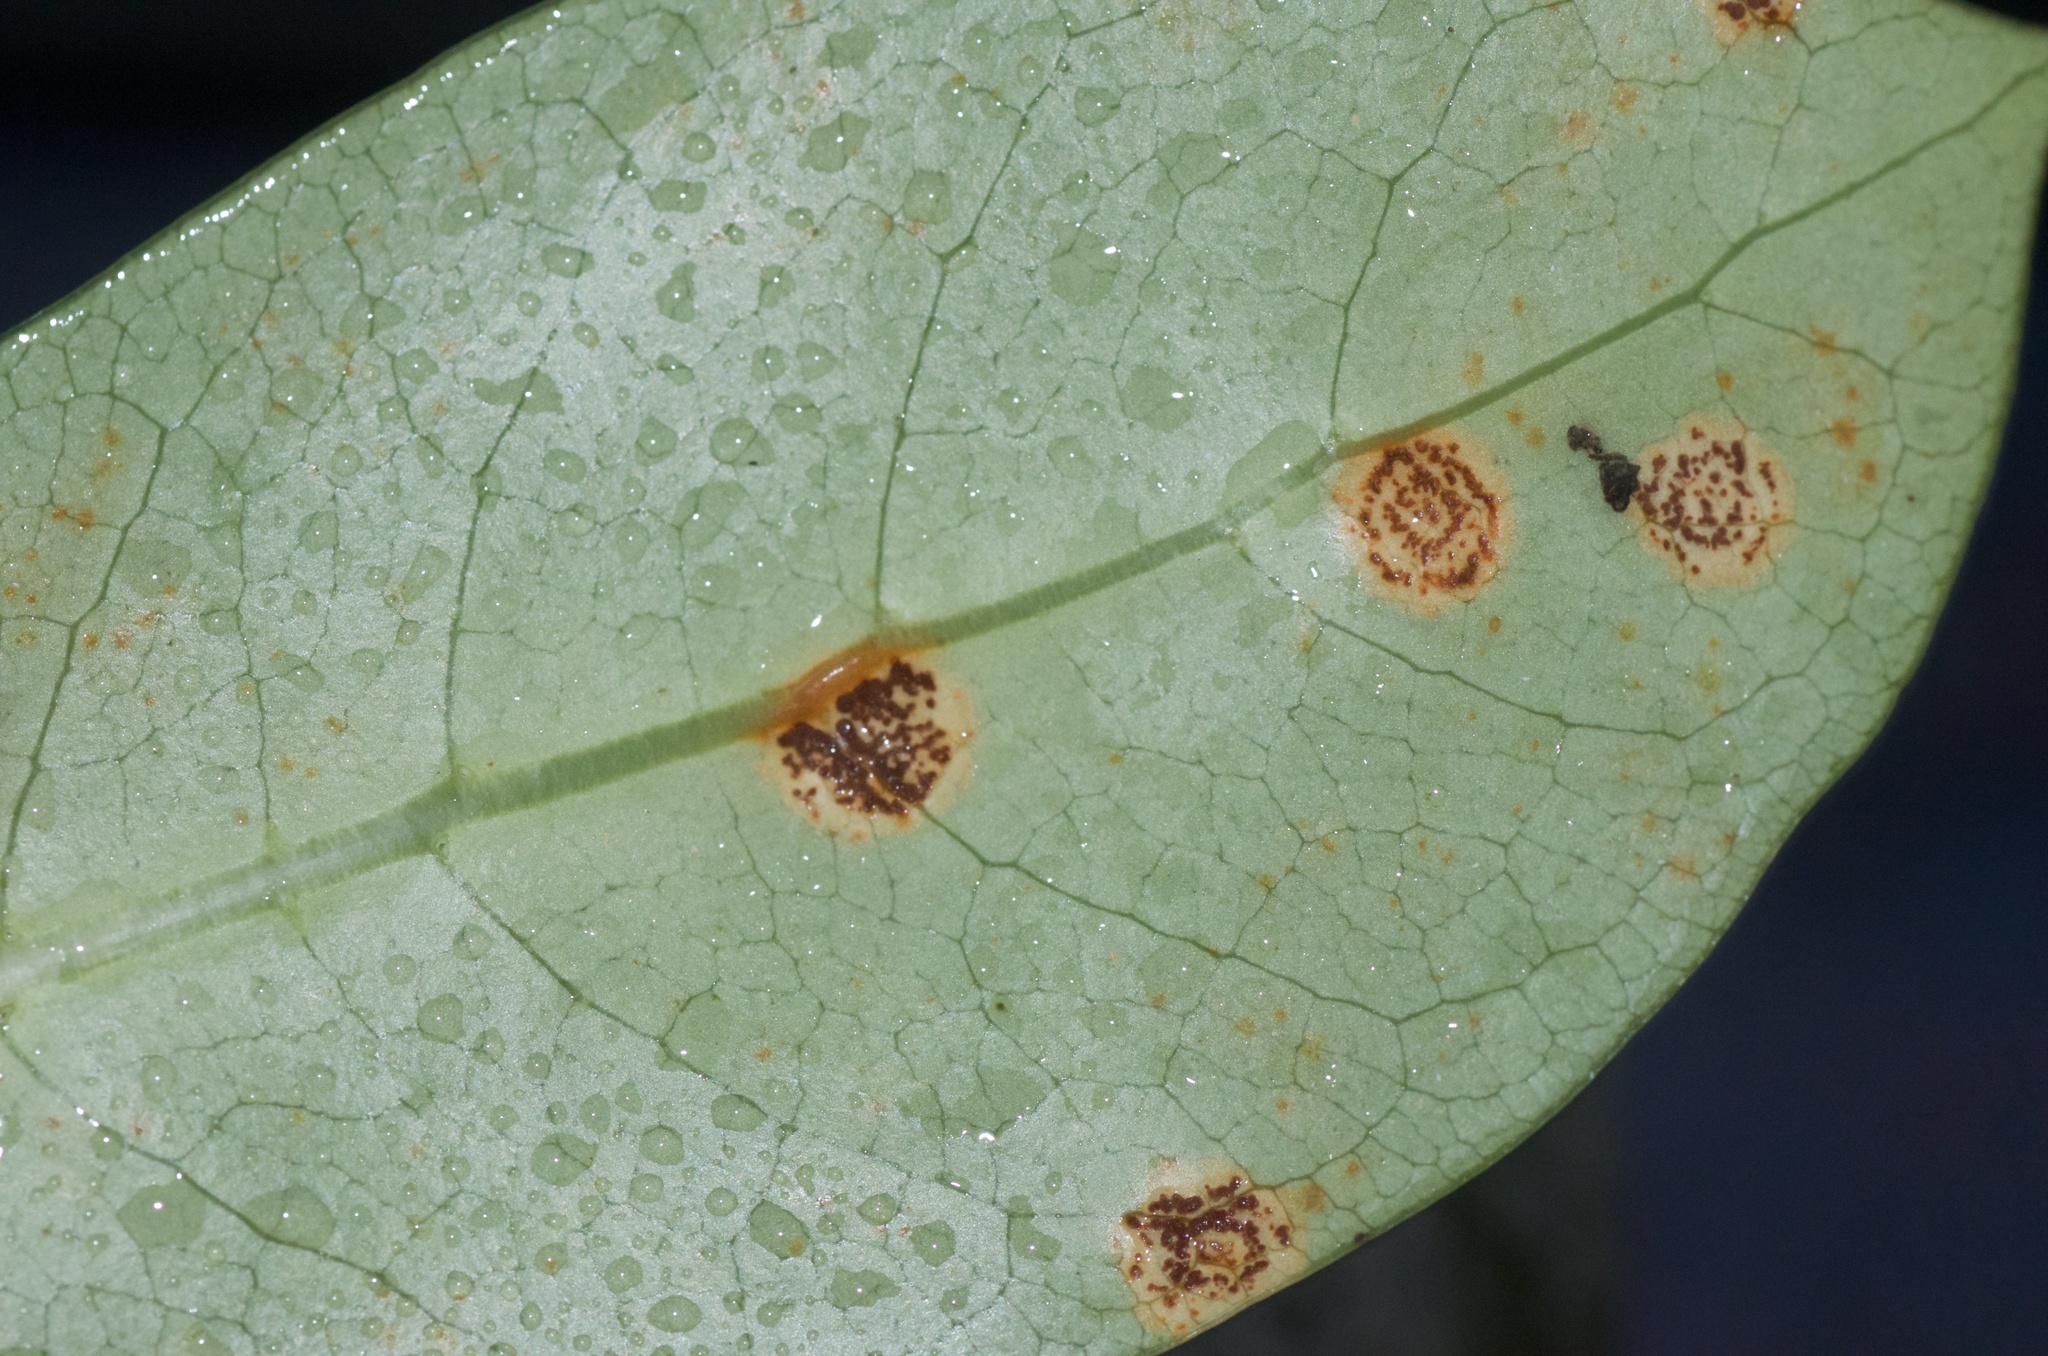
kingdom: Fungi
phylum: Basidiomycota
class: Pucciniomycetes
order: Pucciniales
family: Pucciniaceae
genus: Puccinia
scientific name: Puccinia coprosmae
